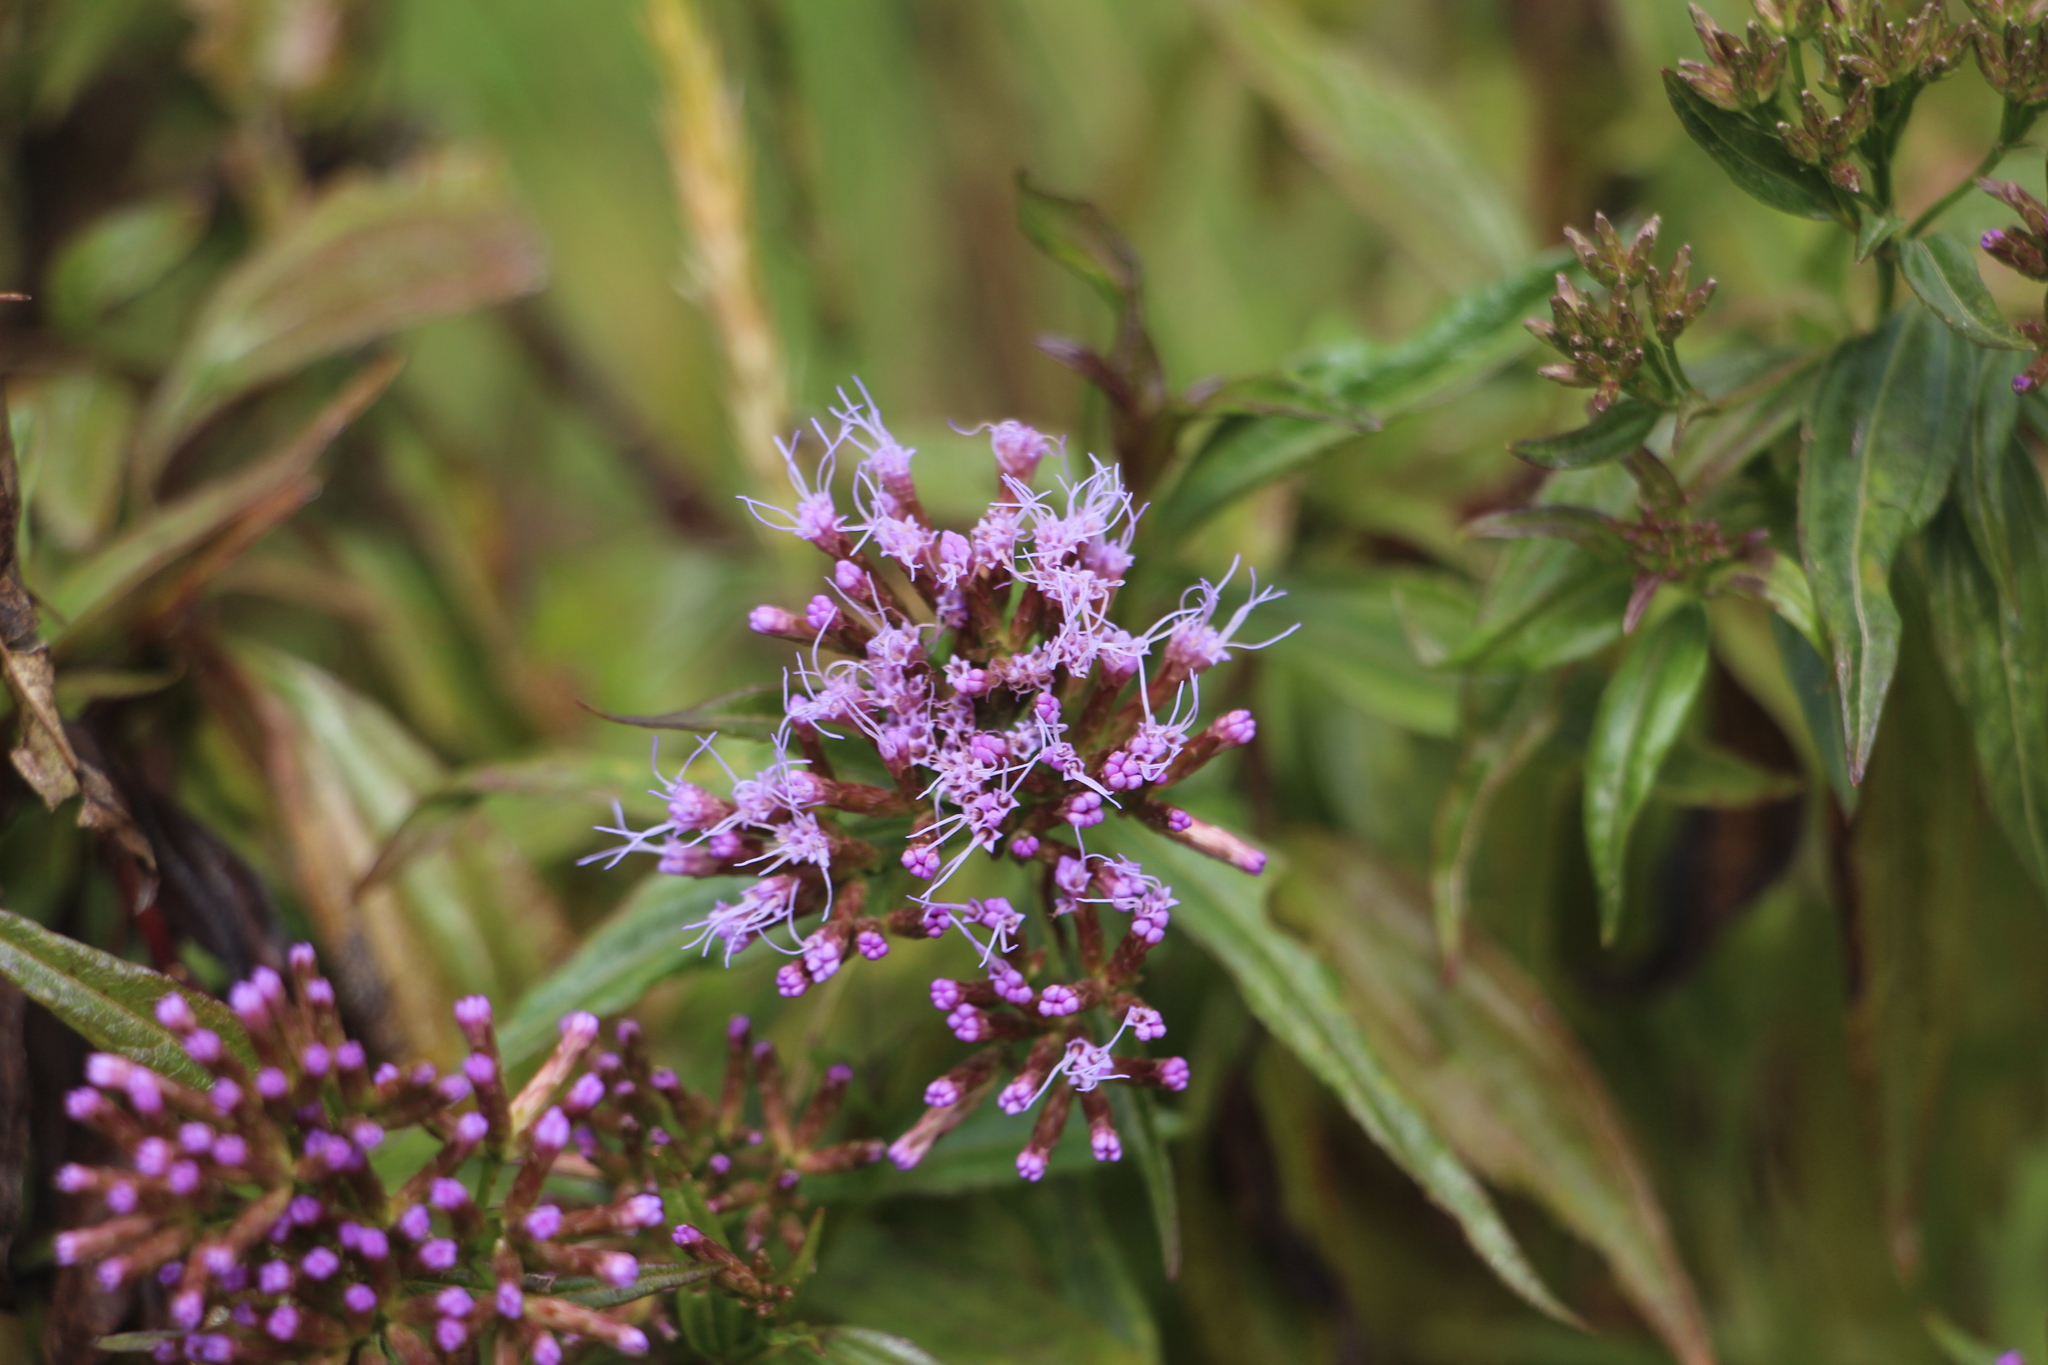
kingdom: Plantae
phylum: Tracheophyta
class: Magnoliopsida
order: Asterales
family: Asteraceae
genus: Chromolaena
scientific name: Chromolaena perglabra
